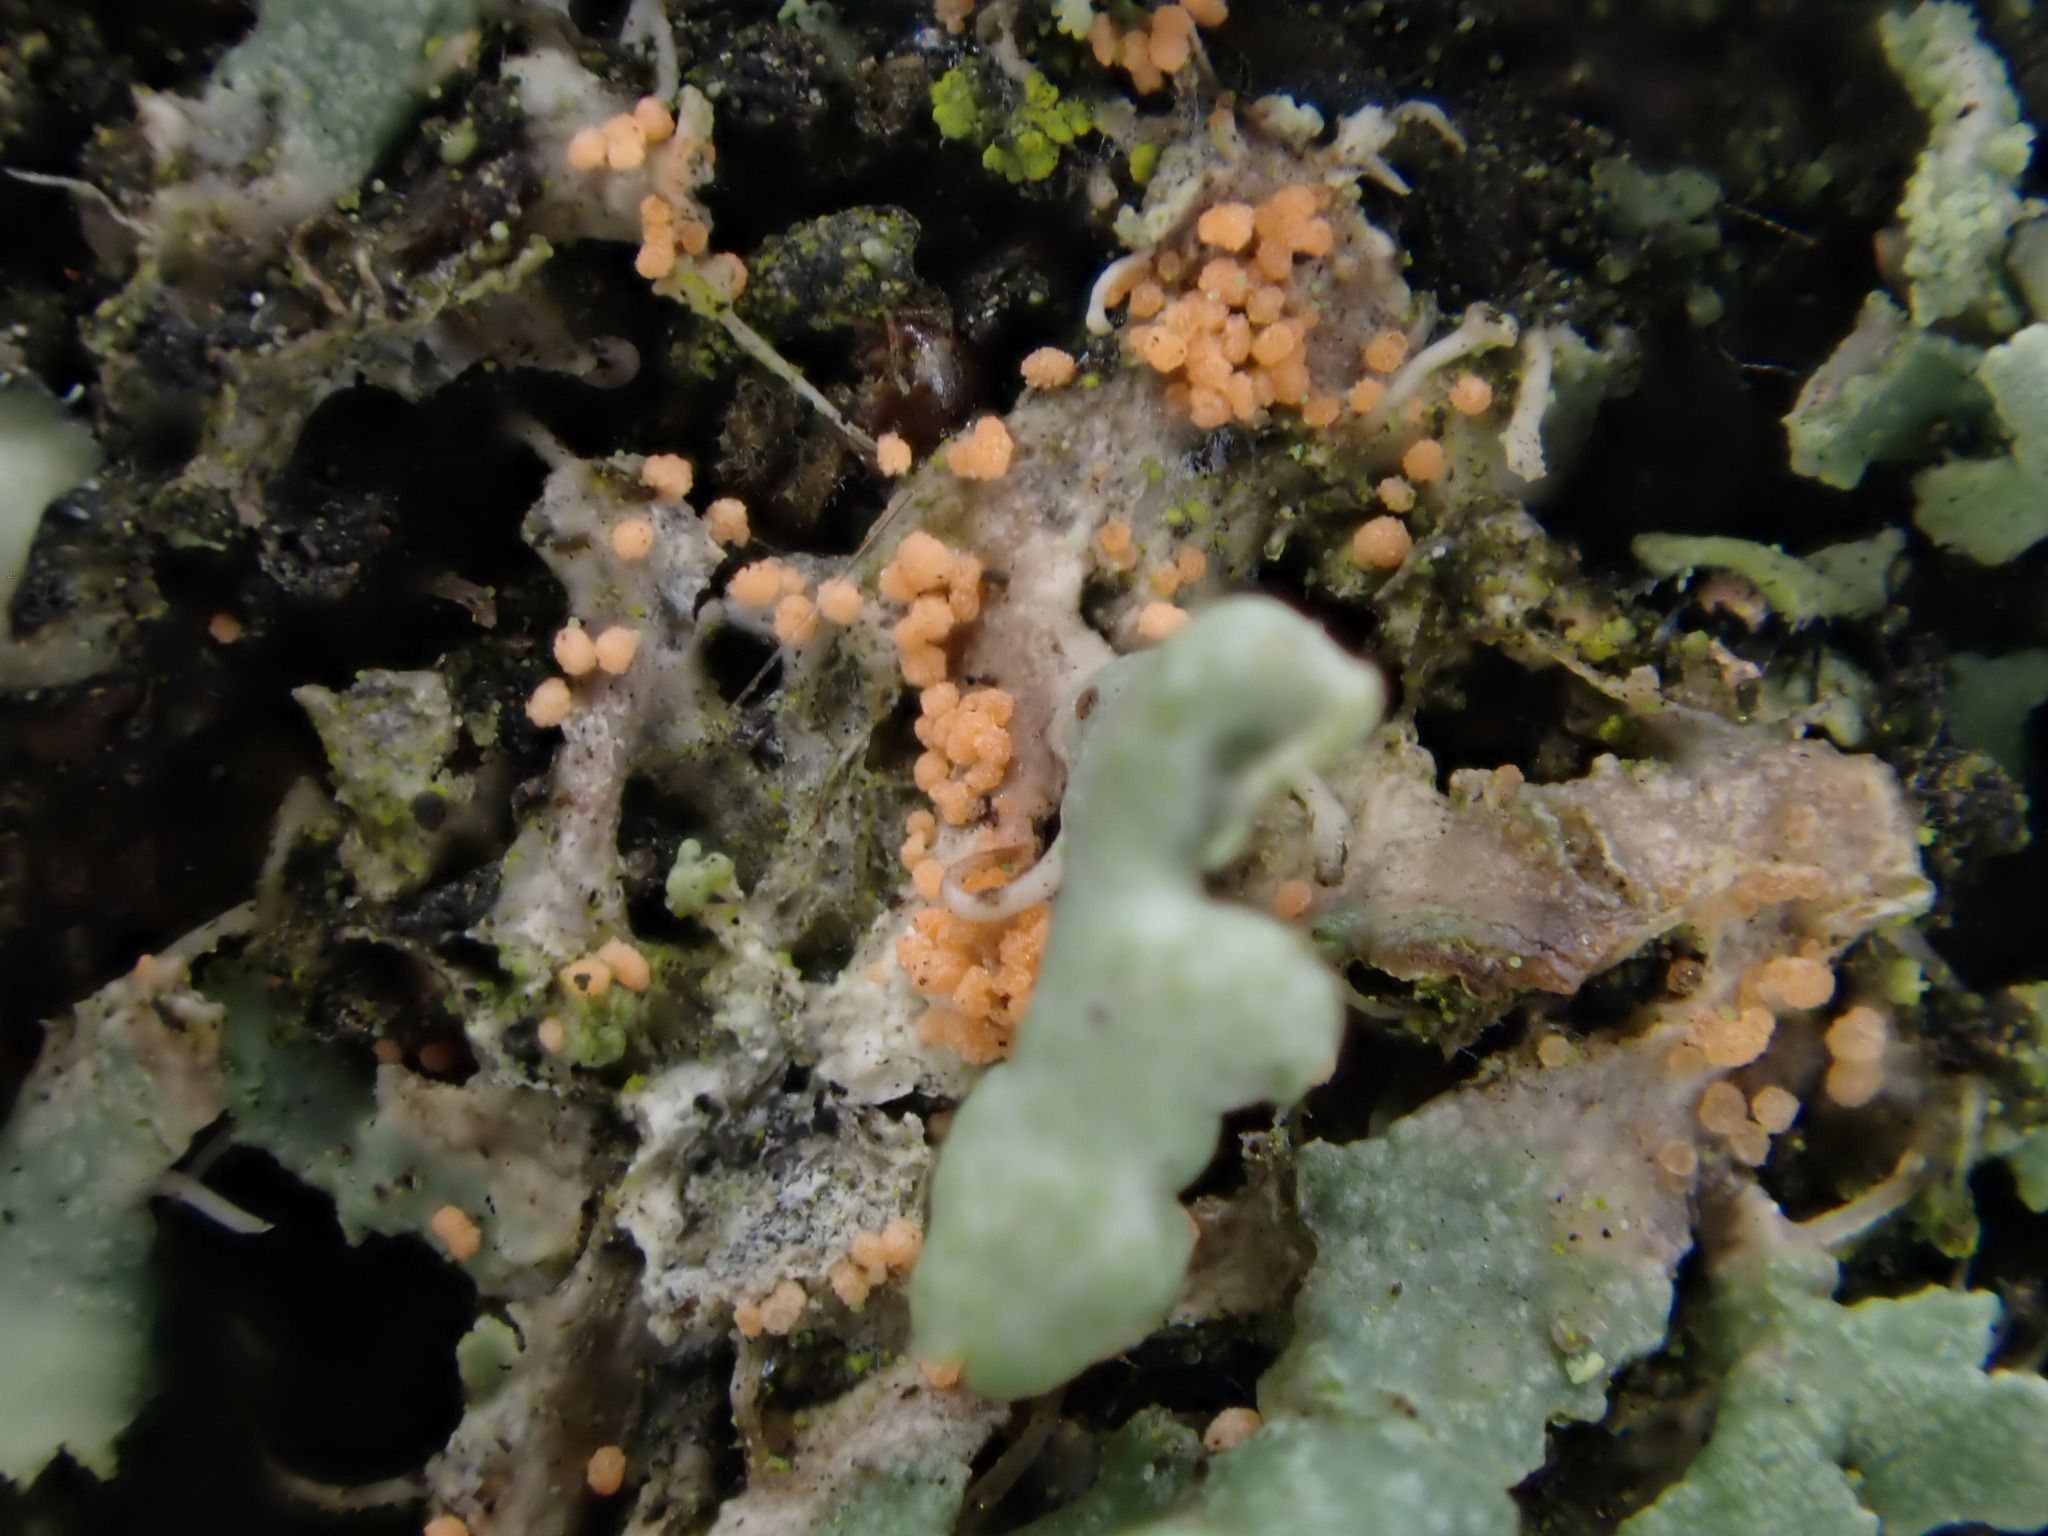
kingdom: Fungi
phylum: Basidiomycota
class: Agaricomycetes
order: Corticiales
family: Corticiaceae
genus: Erythricium
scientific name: Erythricium aurantiacum
